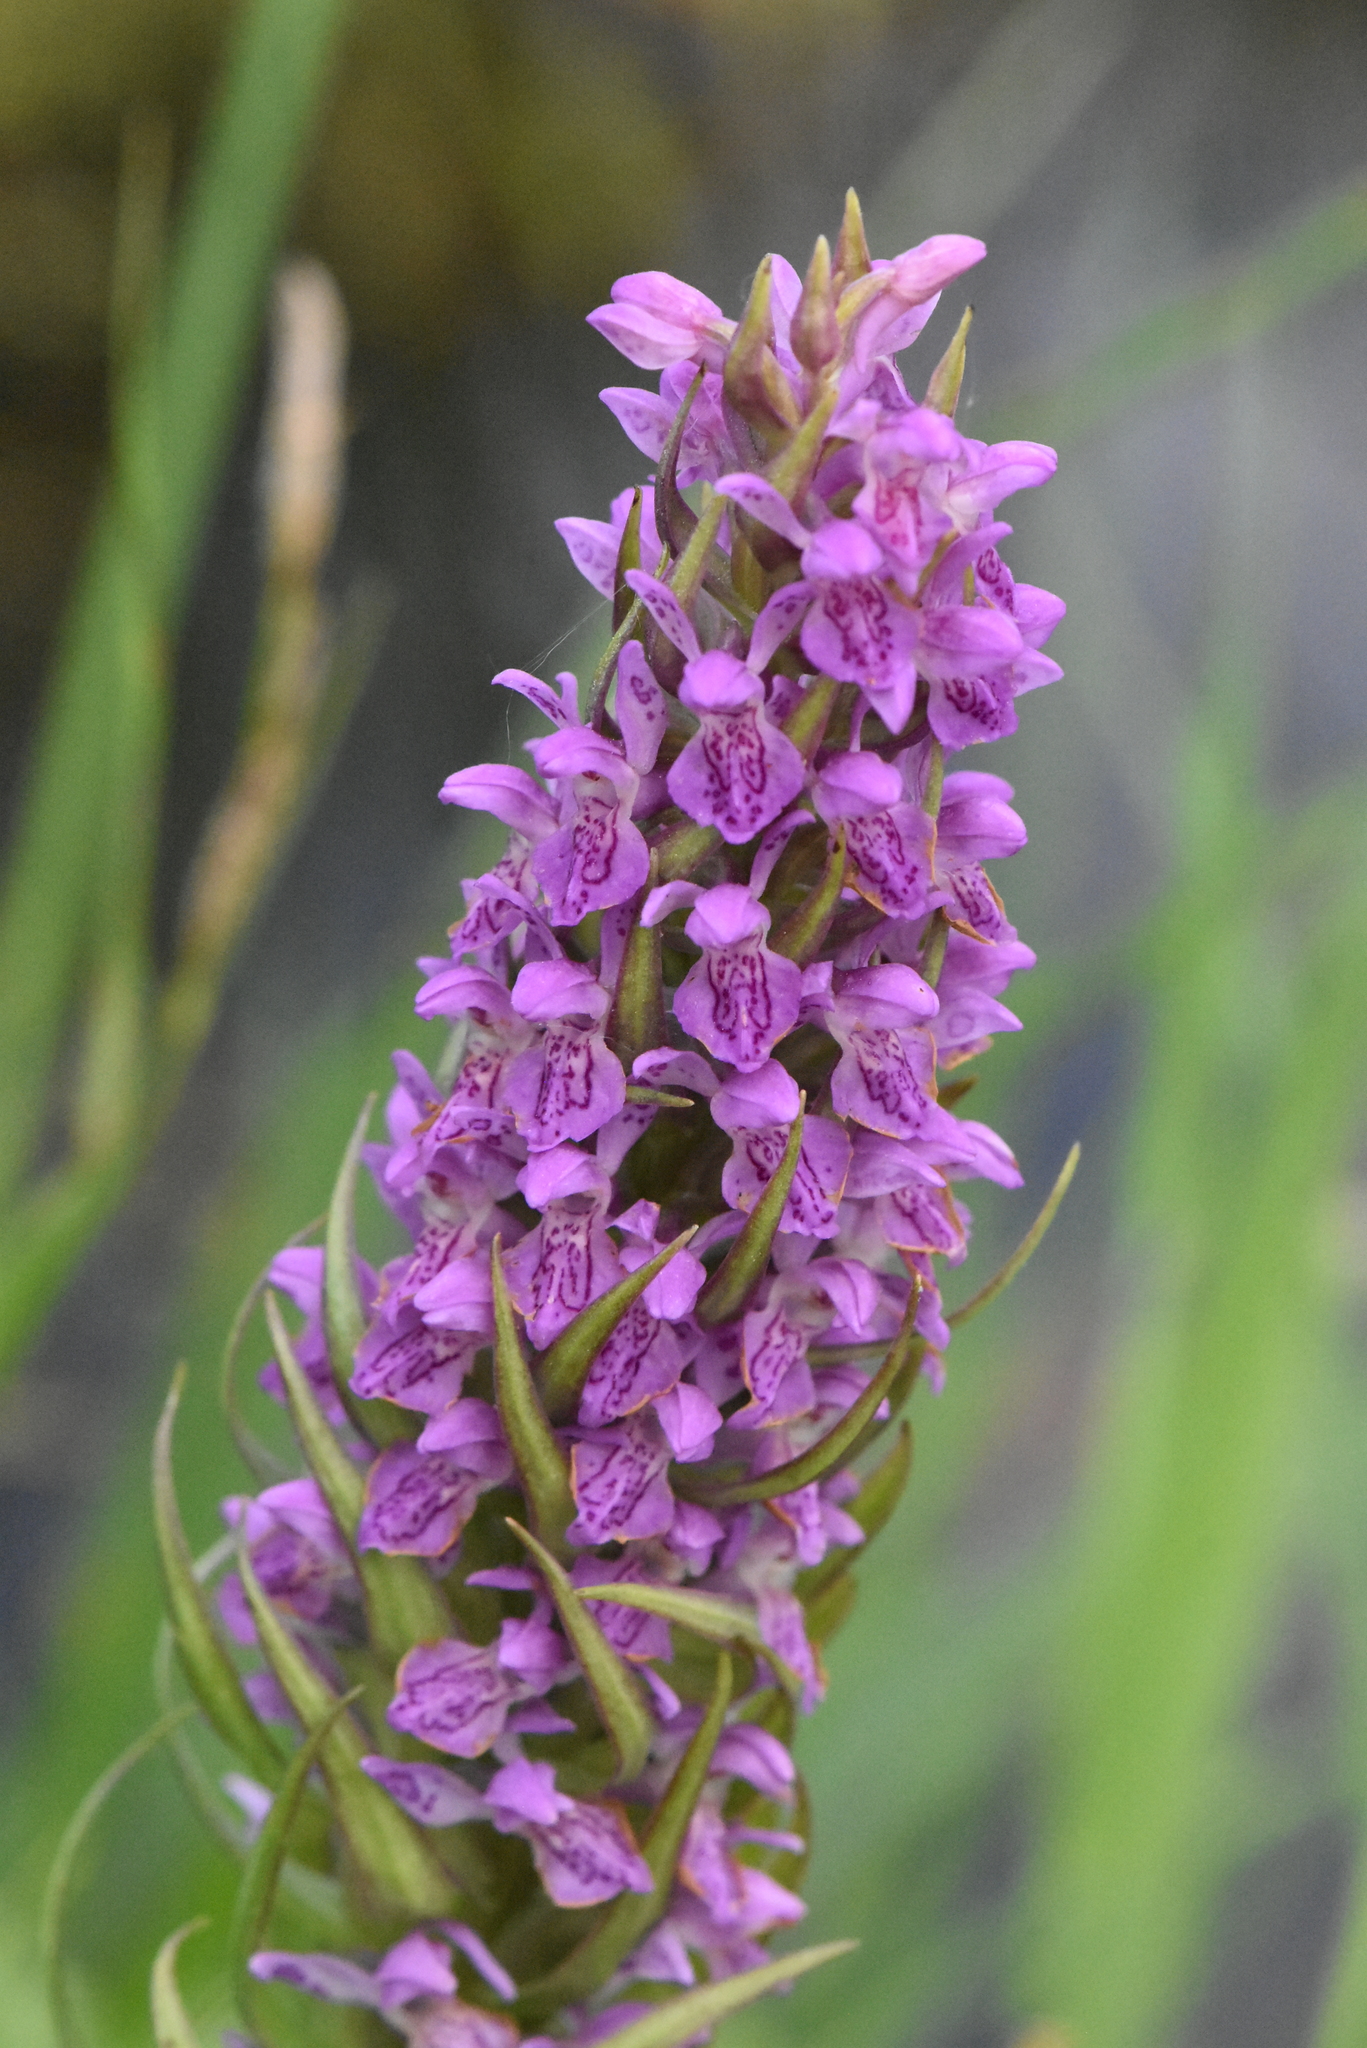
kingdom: Plantae
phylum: Tracheophyta
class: Liliopsida
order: Asparagales
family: Orchidaceae
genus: Dactylorhiza
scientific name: Dactylorhiza incarnata
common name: Early marsh-orchid
